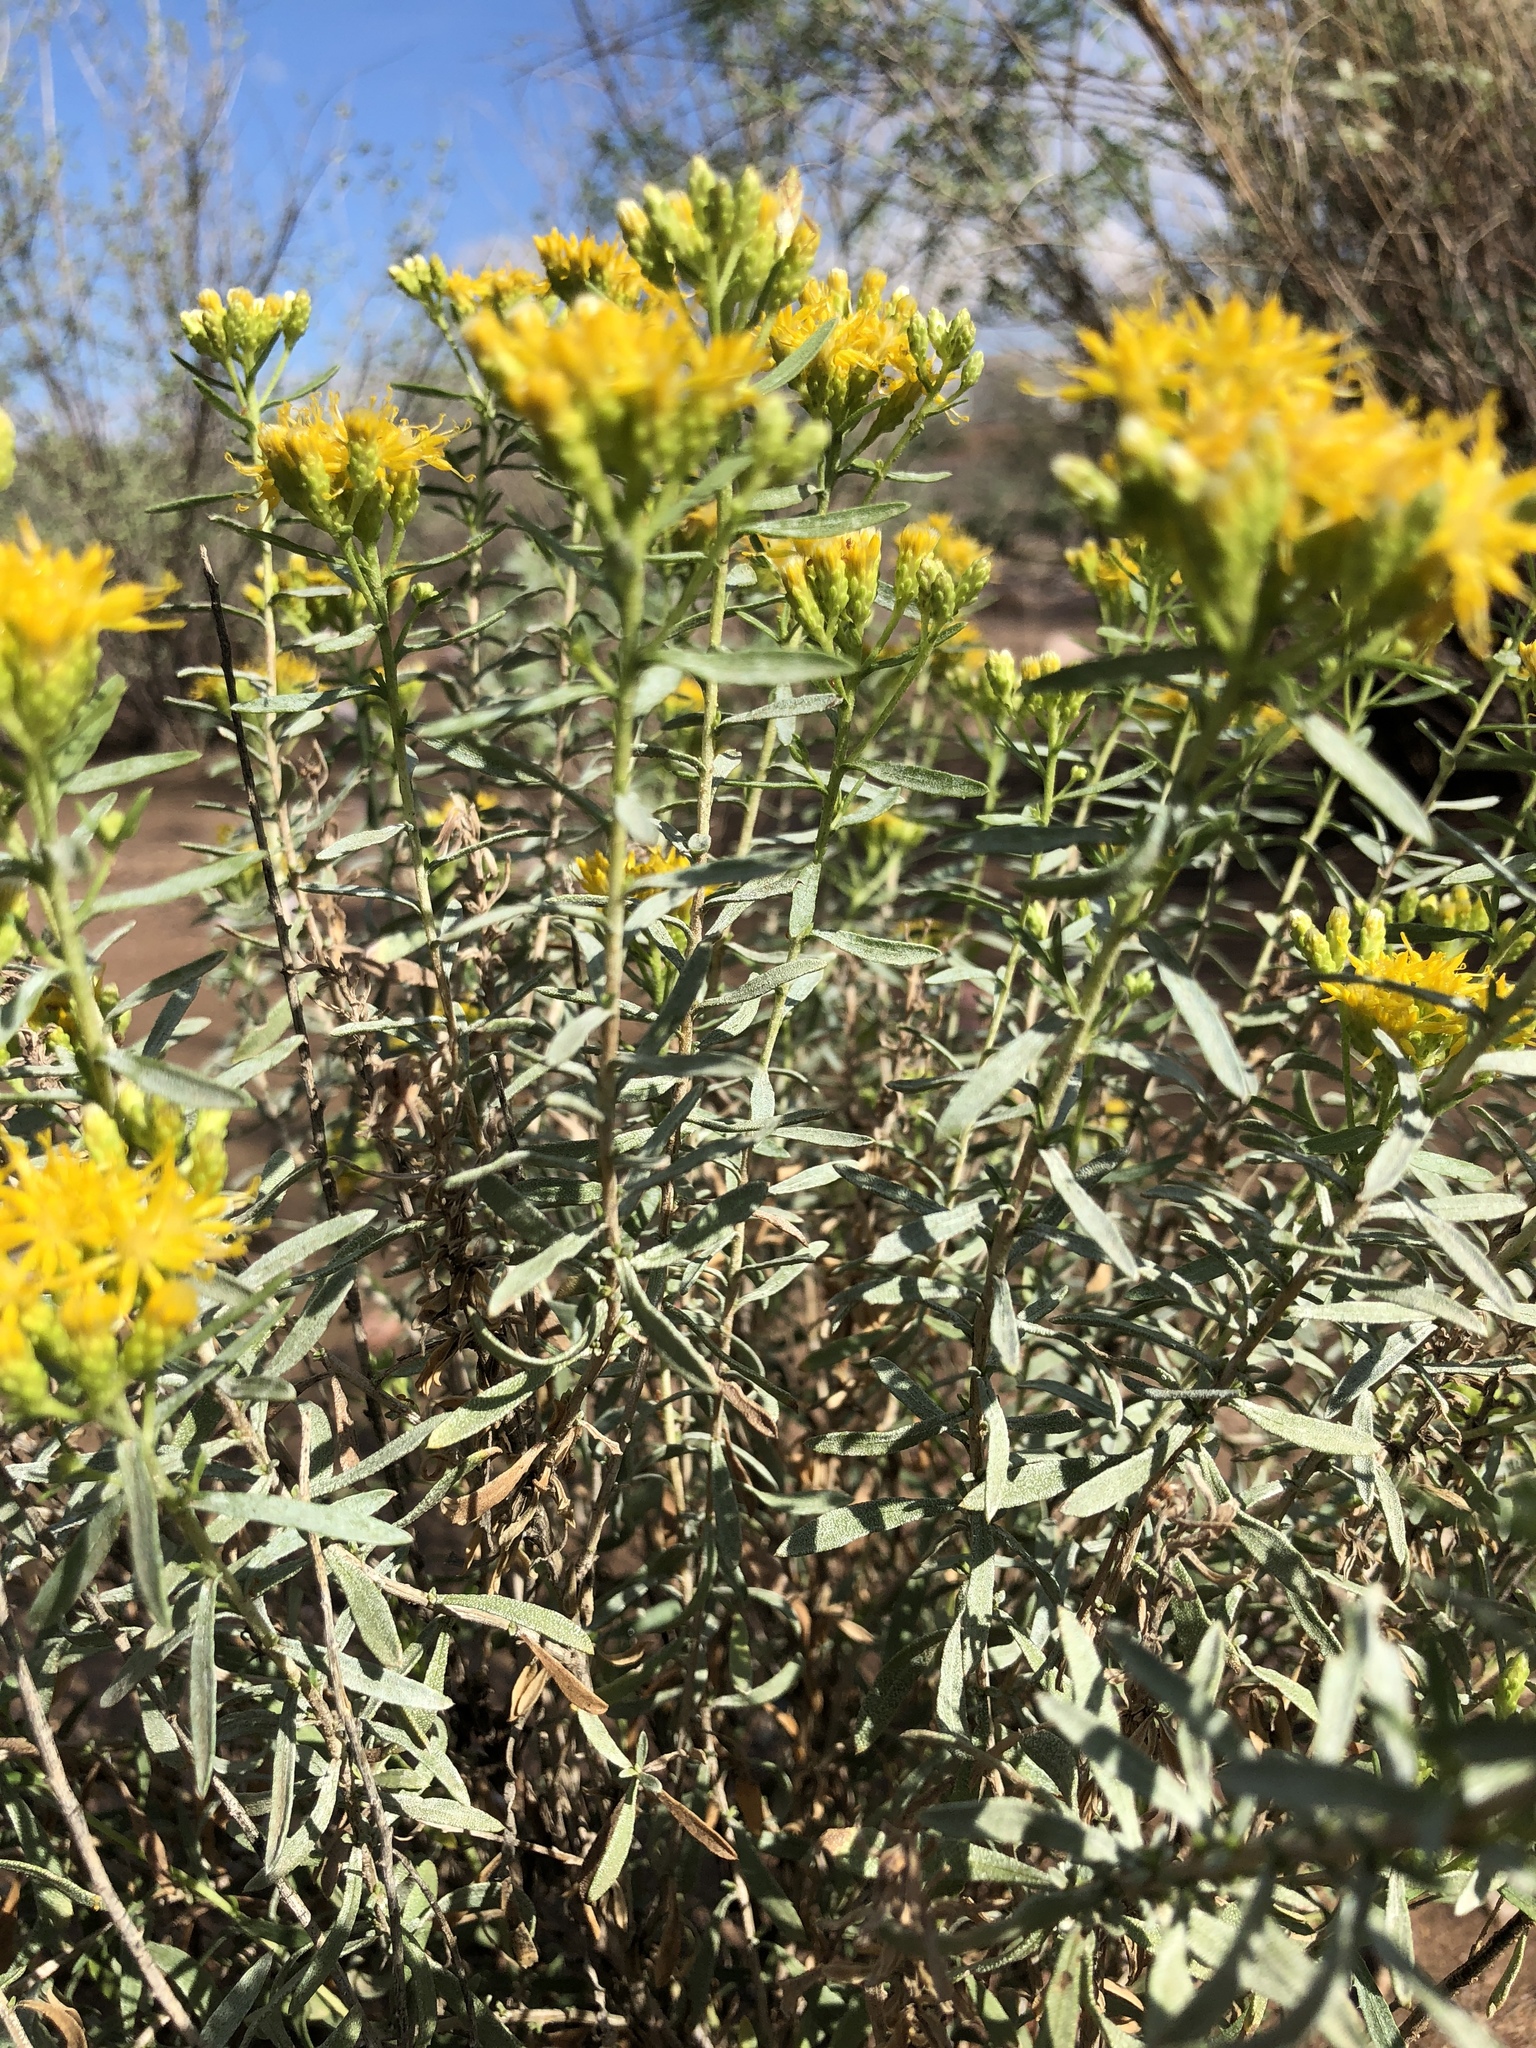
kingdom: Plantae
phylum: Tracheophyta
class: Magnoliopsida
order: Asterales
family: Asteraceae
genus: Isocoma
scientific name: Isocoma acradenia
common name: Alkali jimmyweed
